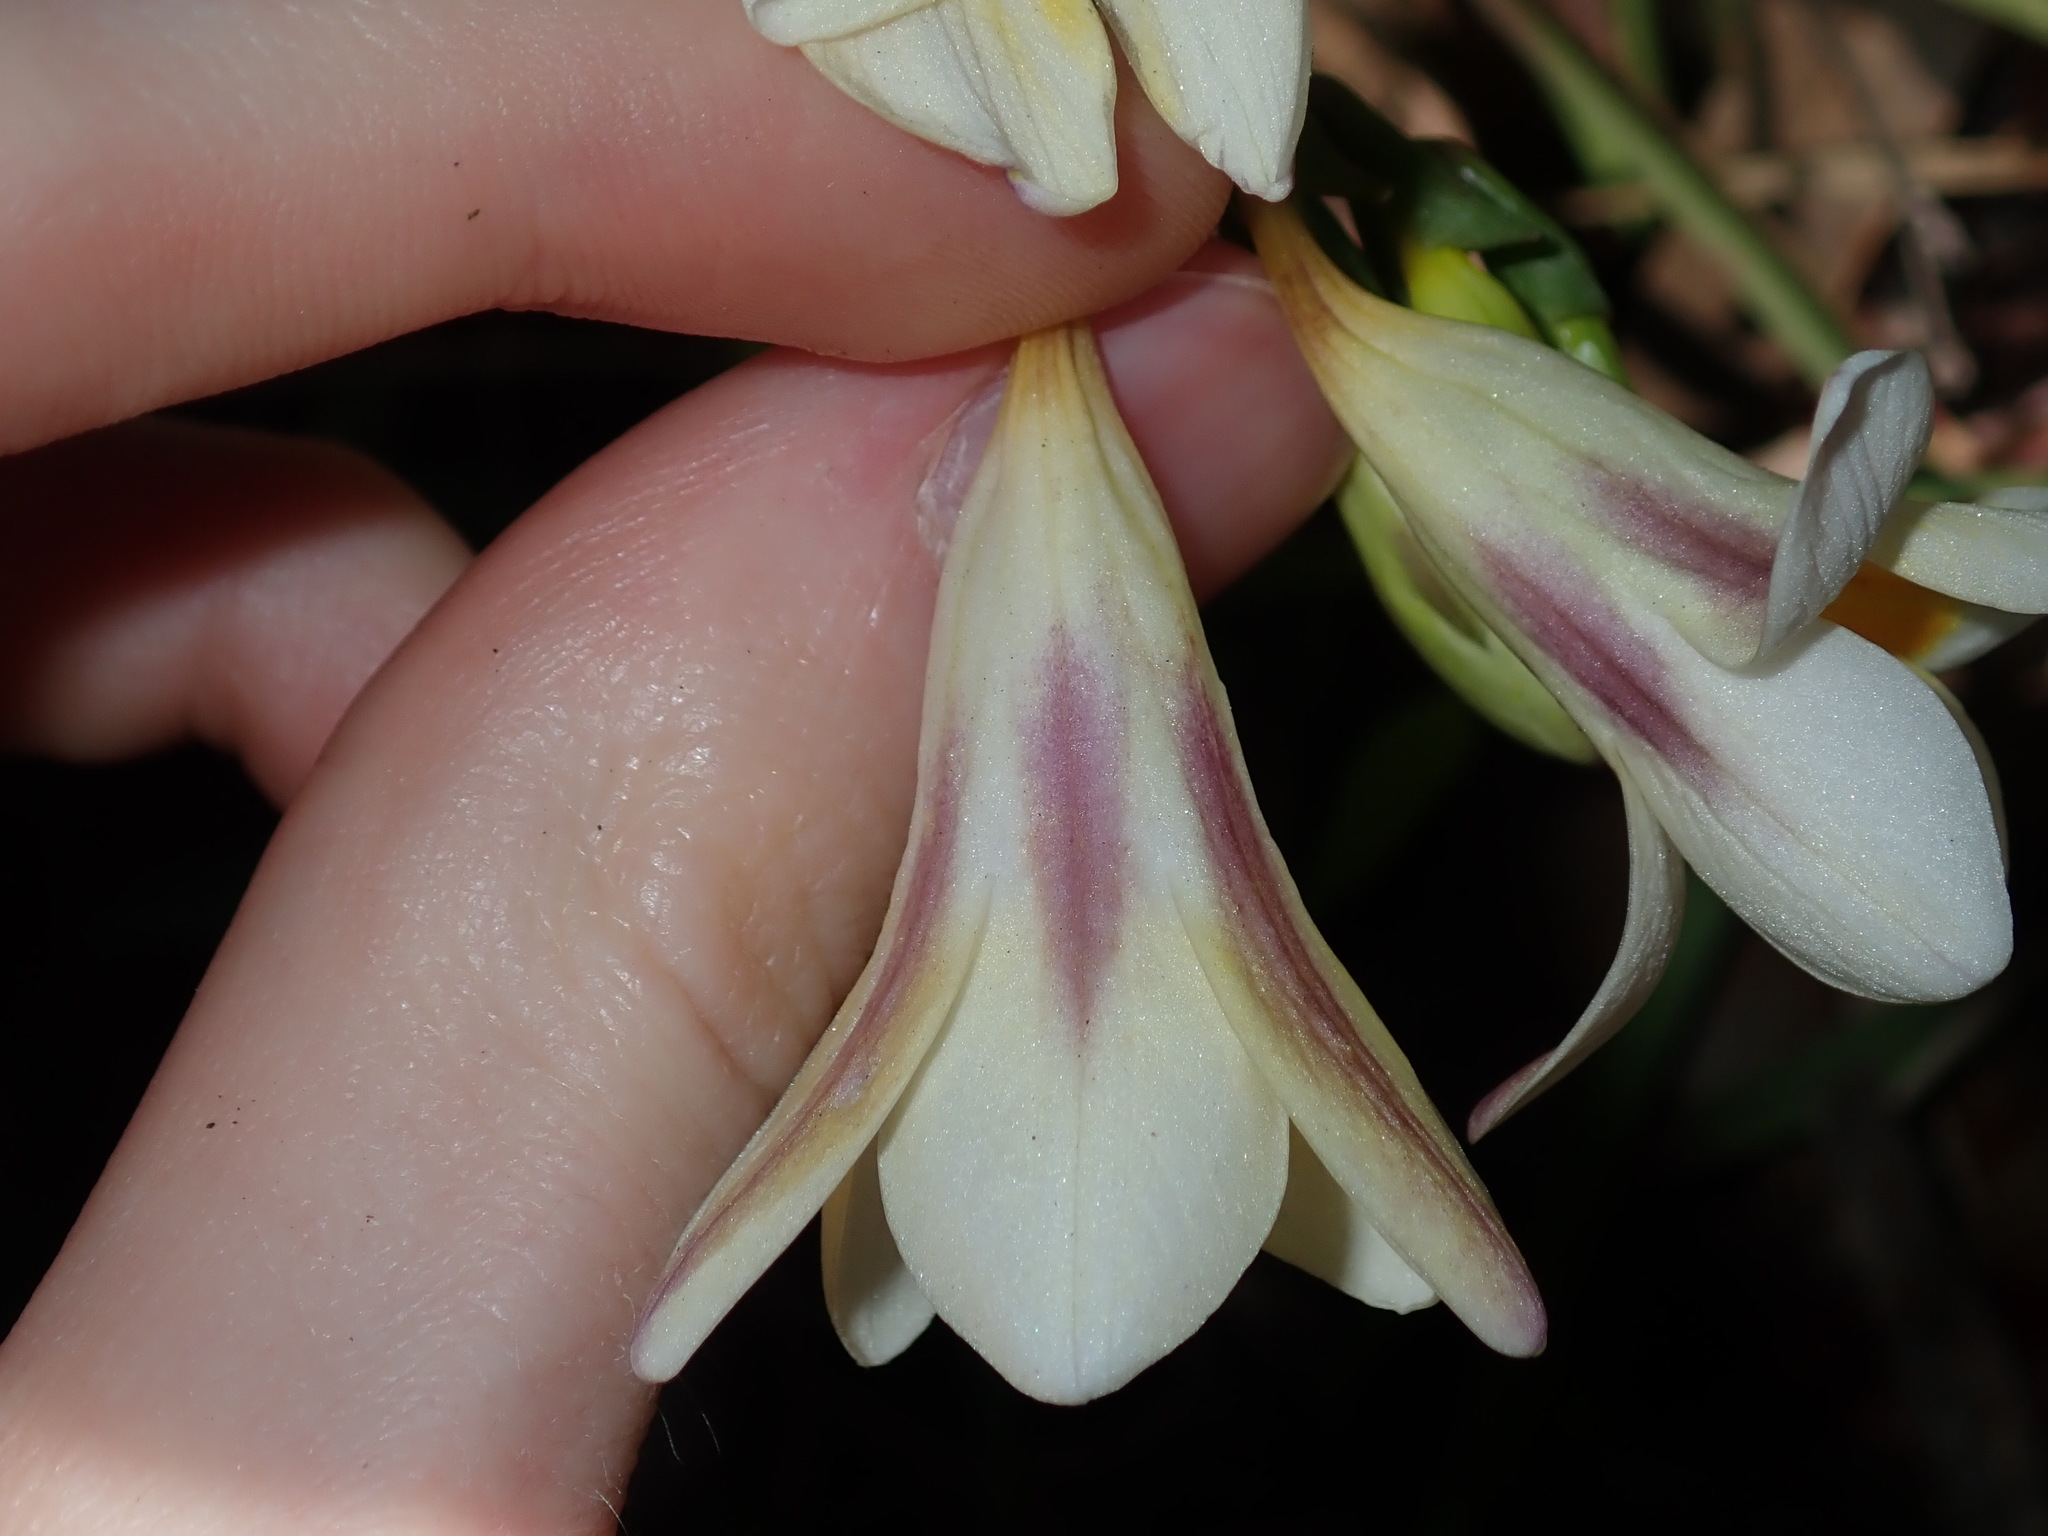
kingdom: Plantae
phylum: Tracheophyta
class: Liliopsida
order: Asparagales
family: Iridaceae
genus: Freesia
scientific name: Freesia leichtlinii
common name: Freesia
